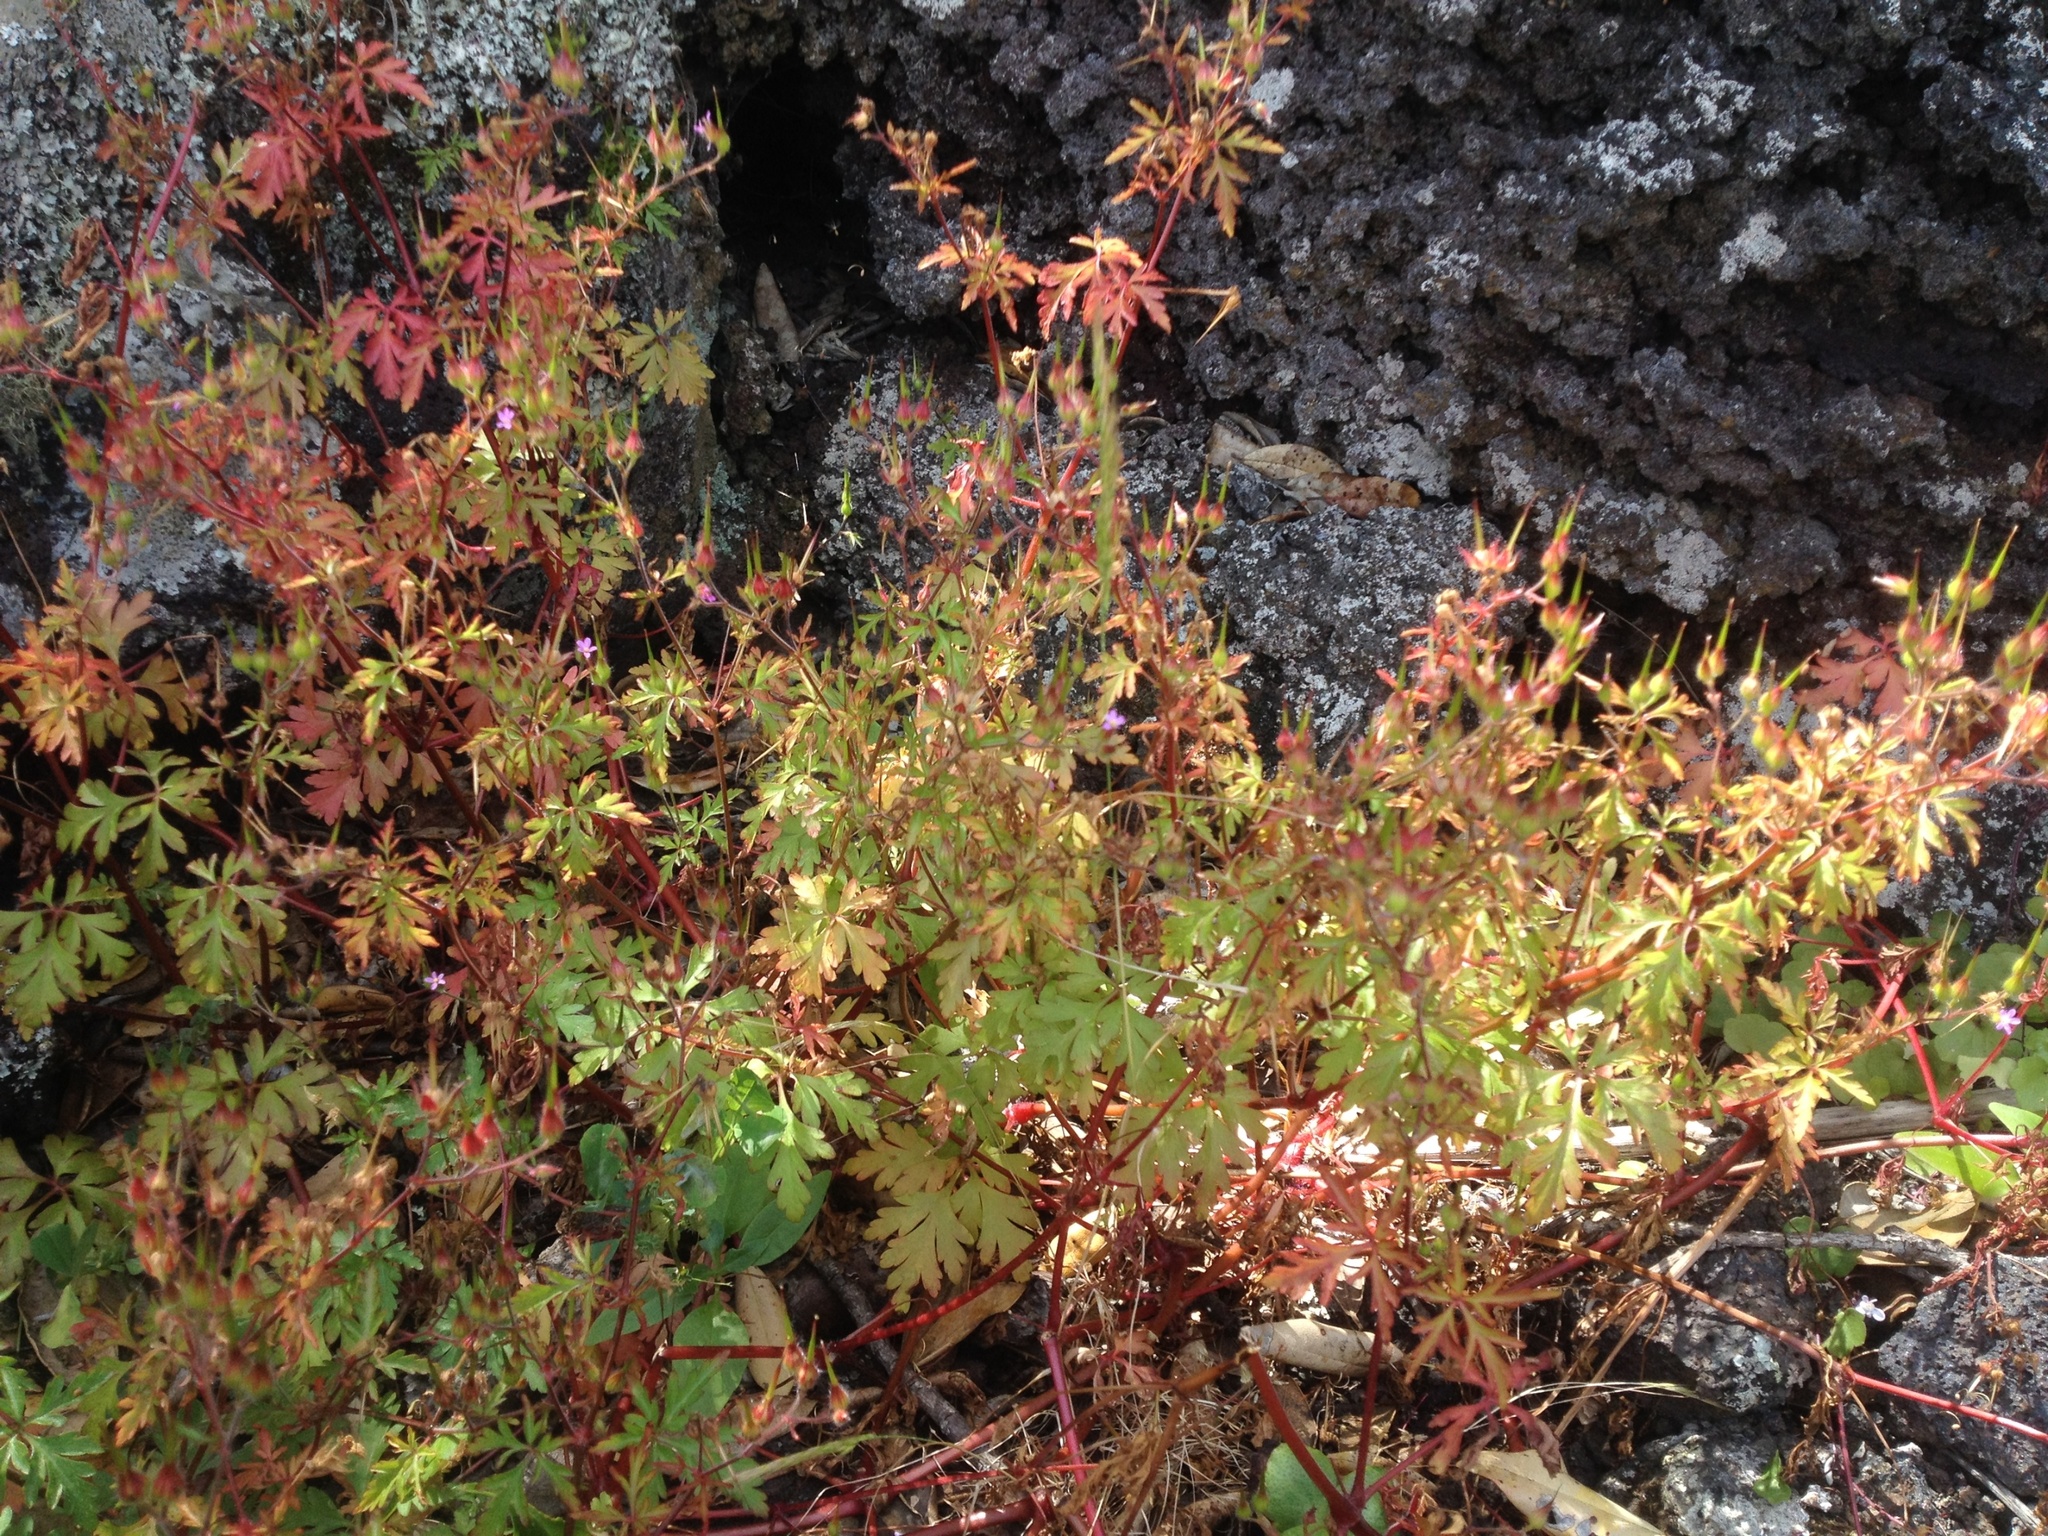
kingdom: Plantae
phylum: Tracheophyta
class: Magnoliopsida
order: Geraniales
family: Geraniaceae
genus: Geranium
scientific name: Geranium purpureum
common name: Little-robin
